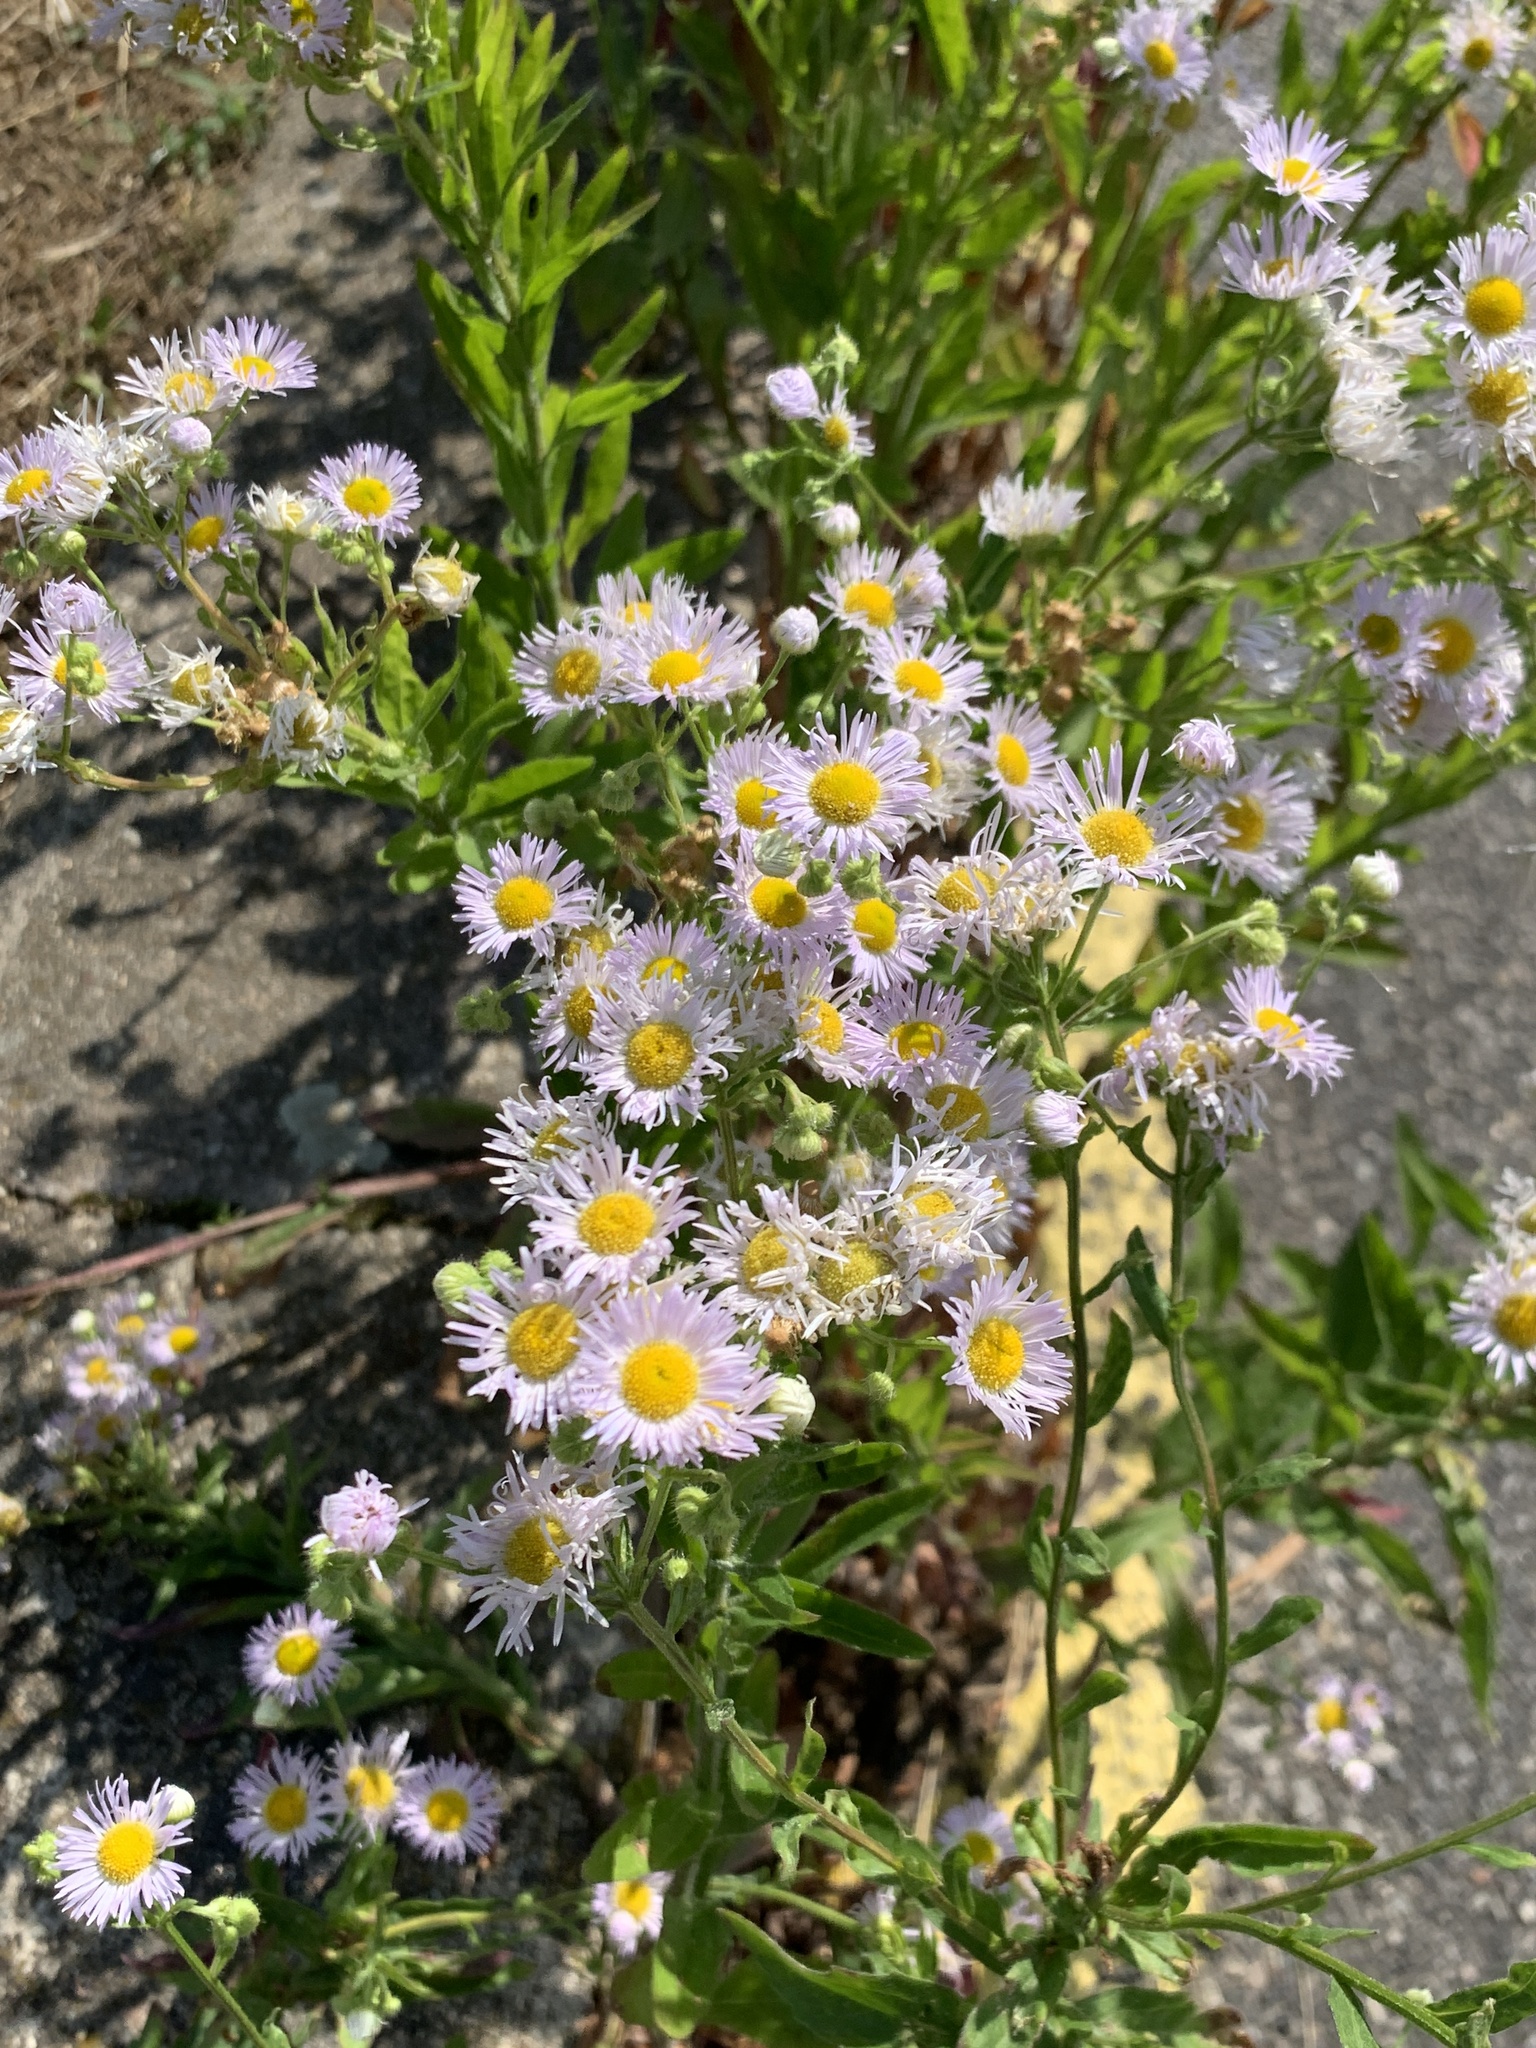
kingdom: Plantae
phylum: Tracheophyta
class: Magnoliopsida
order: Asterales
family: Asteraceae
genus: Erigeron
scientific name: Erigeron annuus
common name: Tall fleabane
